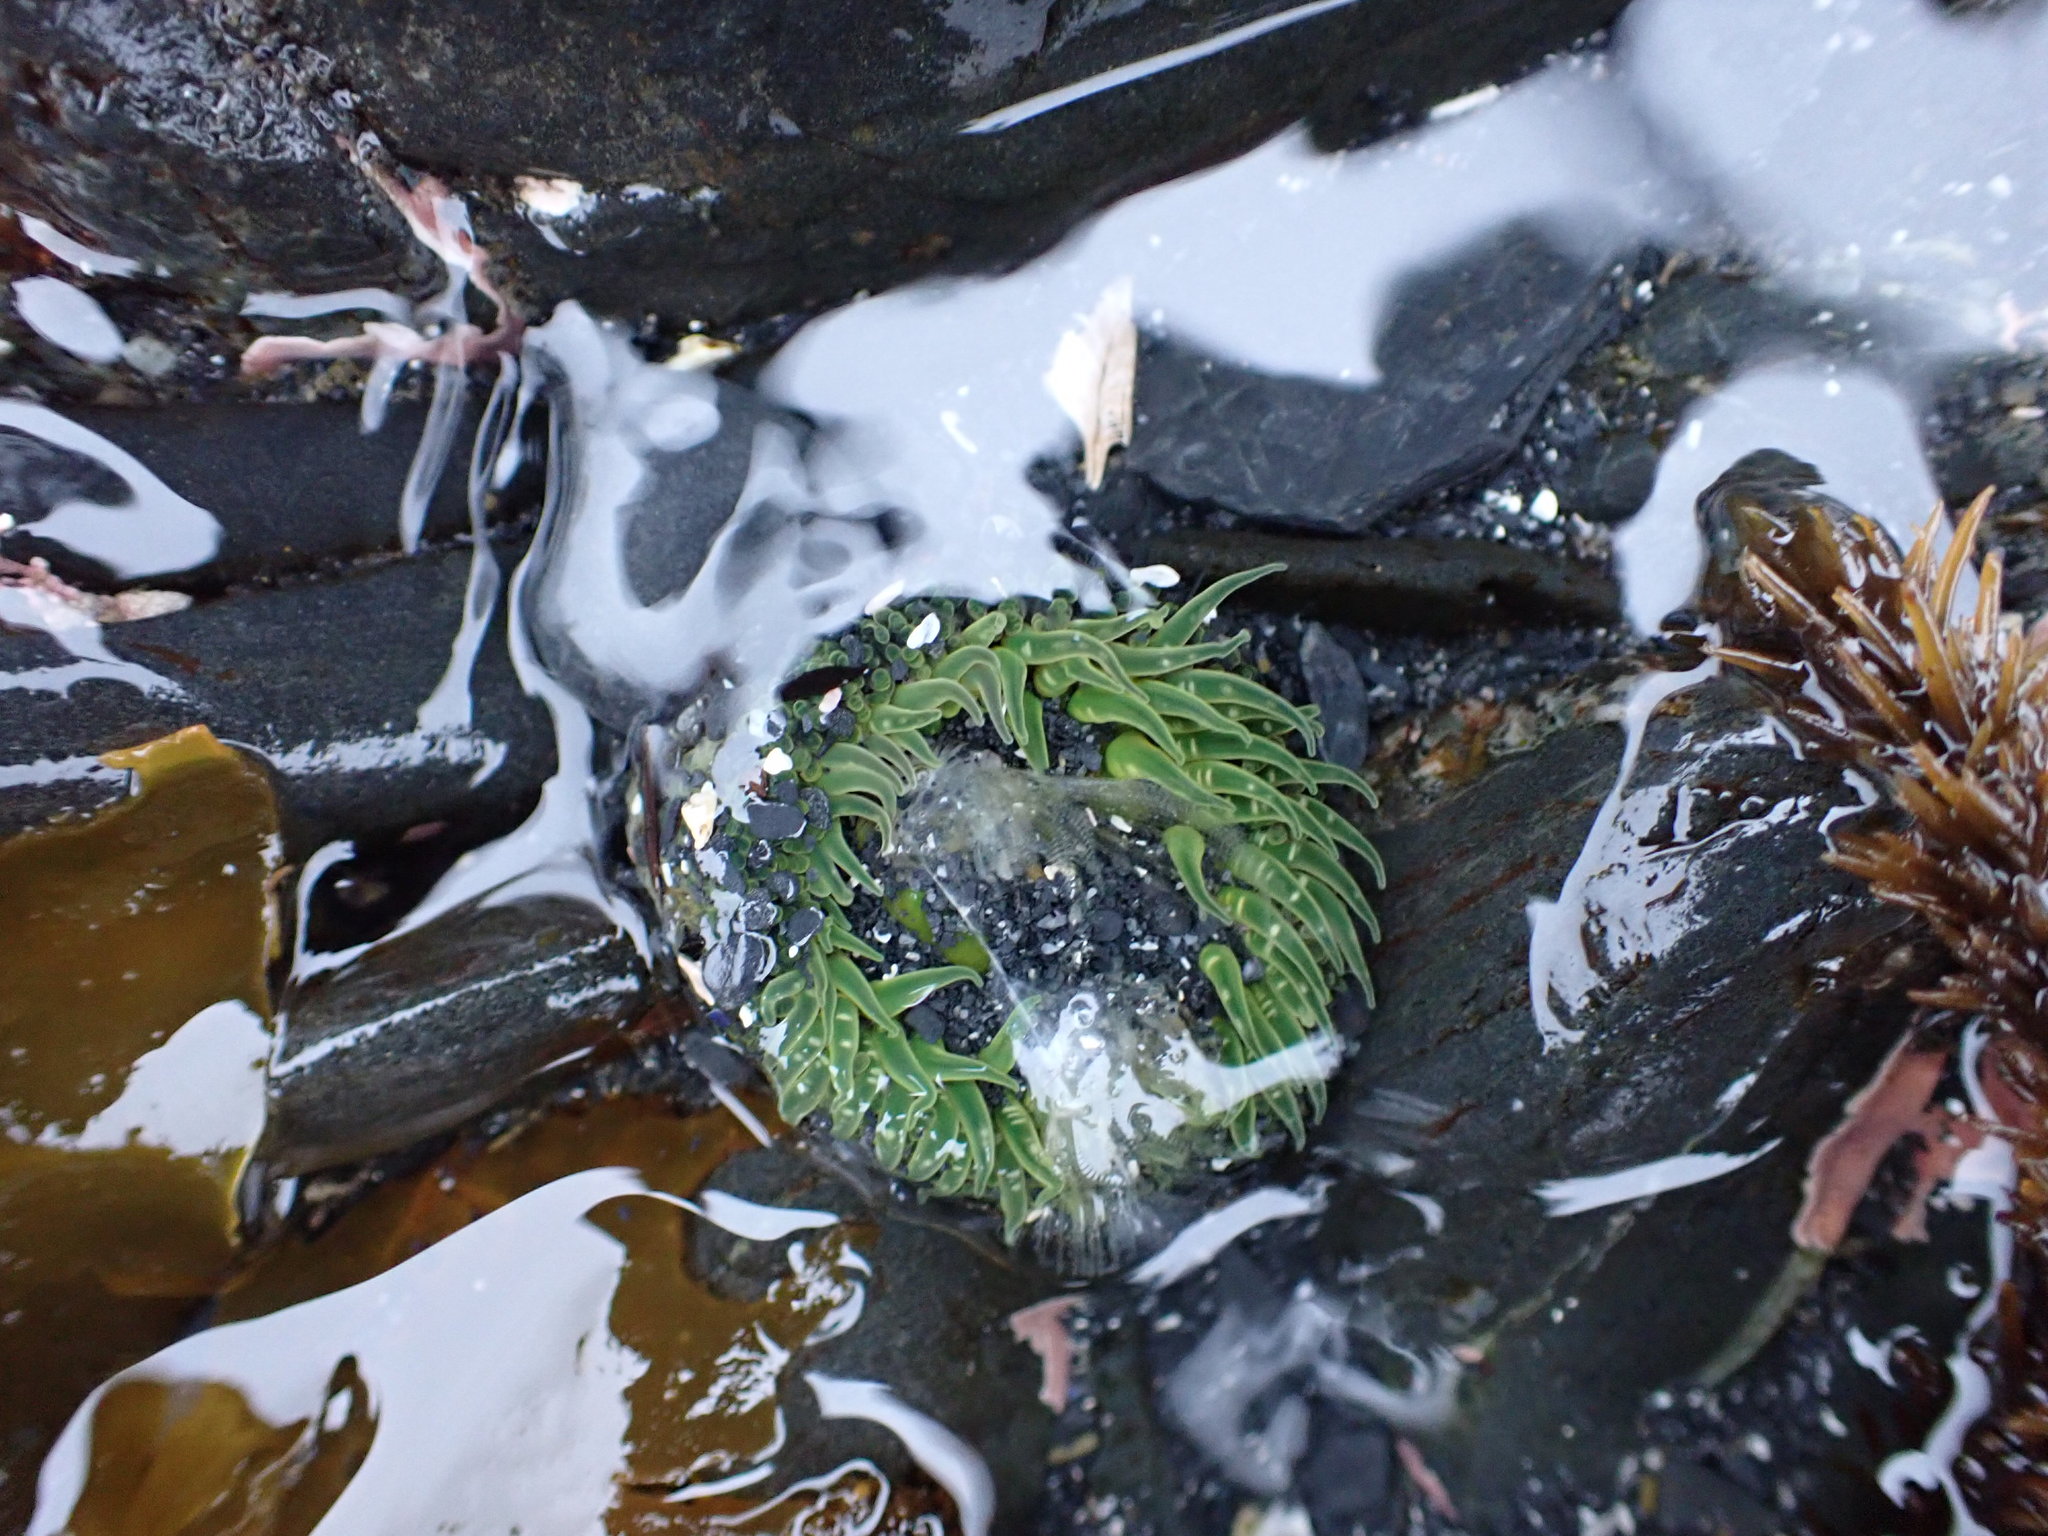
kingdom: Animalia
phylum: Cnidaria
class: Anthozoa
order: Actiniaria
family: Actiniidae
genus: Anthopleura
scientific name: Anthopleura artemisia
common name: Buried sea anemone
